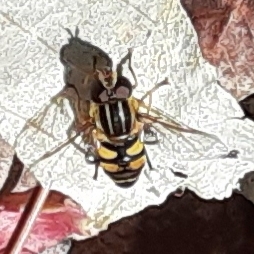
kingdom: Animalia
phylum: Arthropoda
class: Insecta
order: Diptera
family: Syrphidae
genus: Helophilus
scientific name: Helophilus fasciatus
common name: Narrow-headed marsh fly
